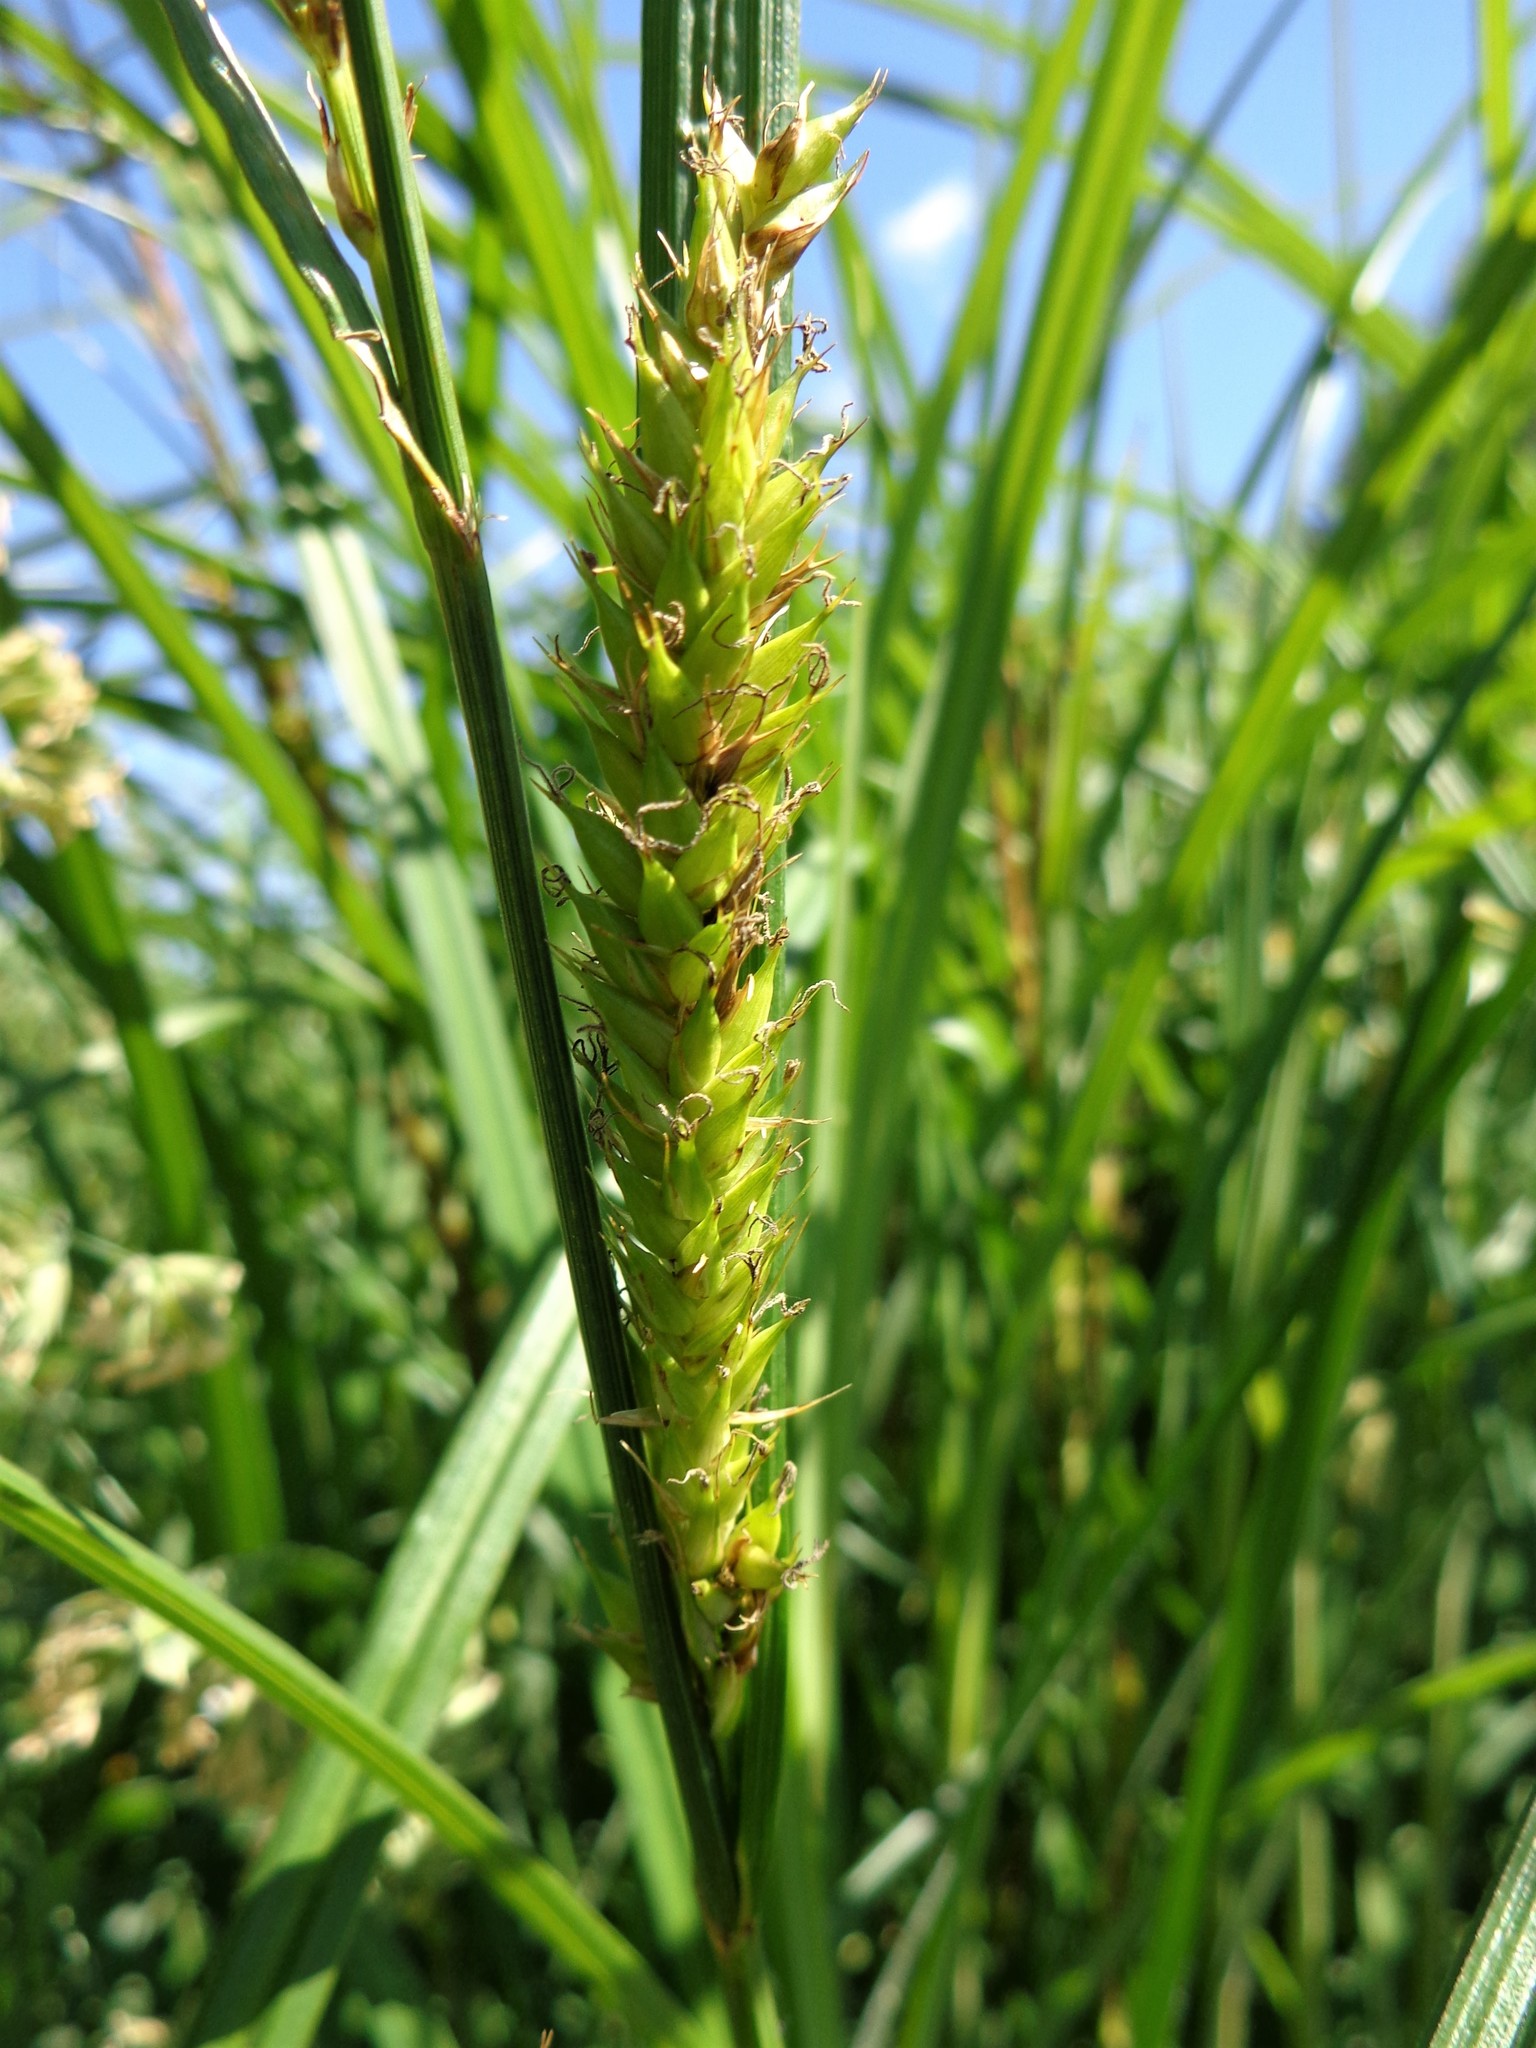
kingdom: Plantae
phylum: Tracheophyta
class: Liliopsida
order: Poales
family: Cyperaceae
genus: Carex
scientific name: Carex atherodes
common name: Wheat sedge
